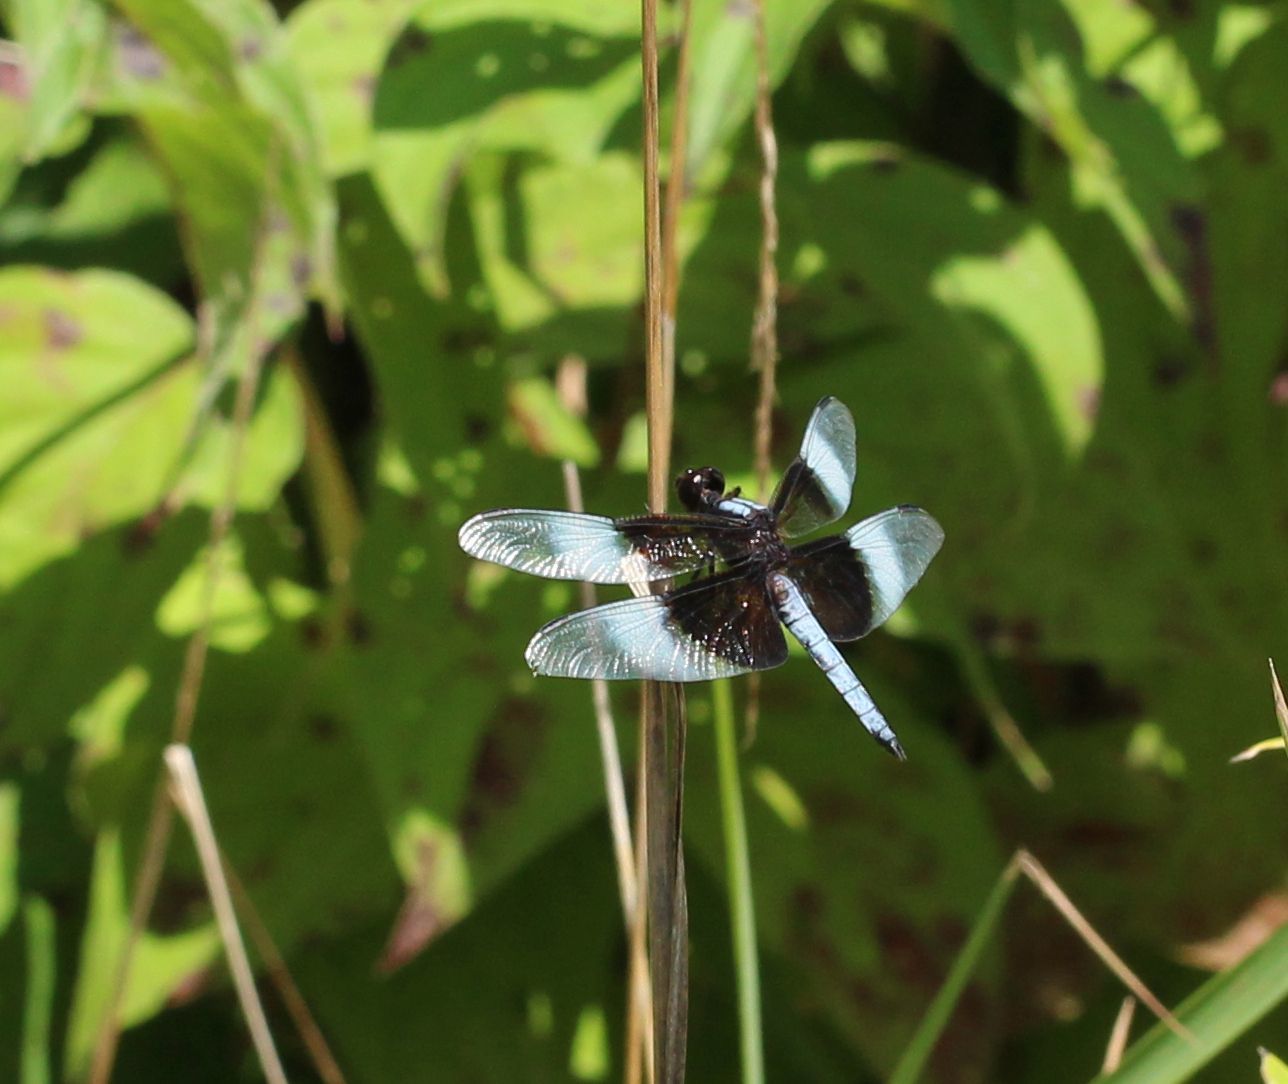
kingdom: Animalia
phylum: Arthropoda
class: Insecta
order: Odonata
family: Libellulidae
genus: Libellula
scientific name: Libellula luctuosa
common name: Widow skimmer
